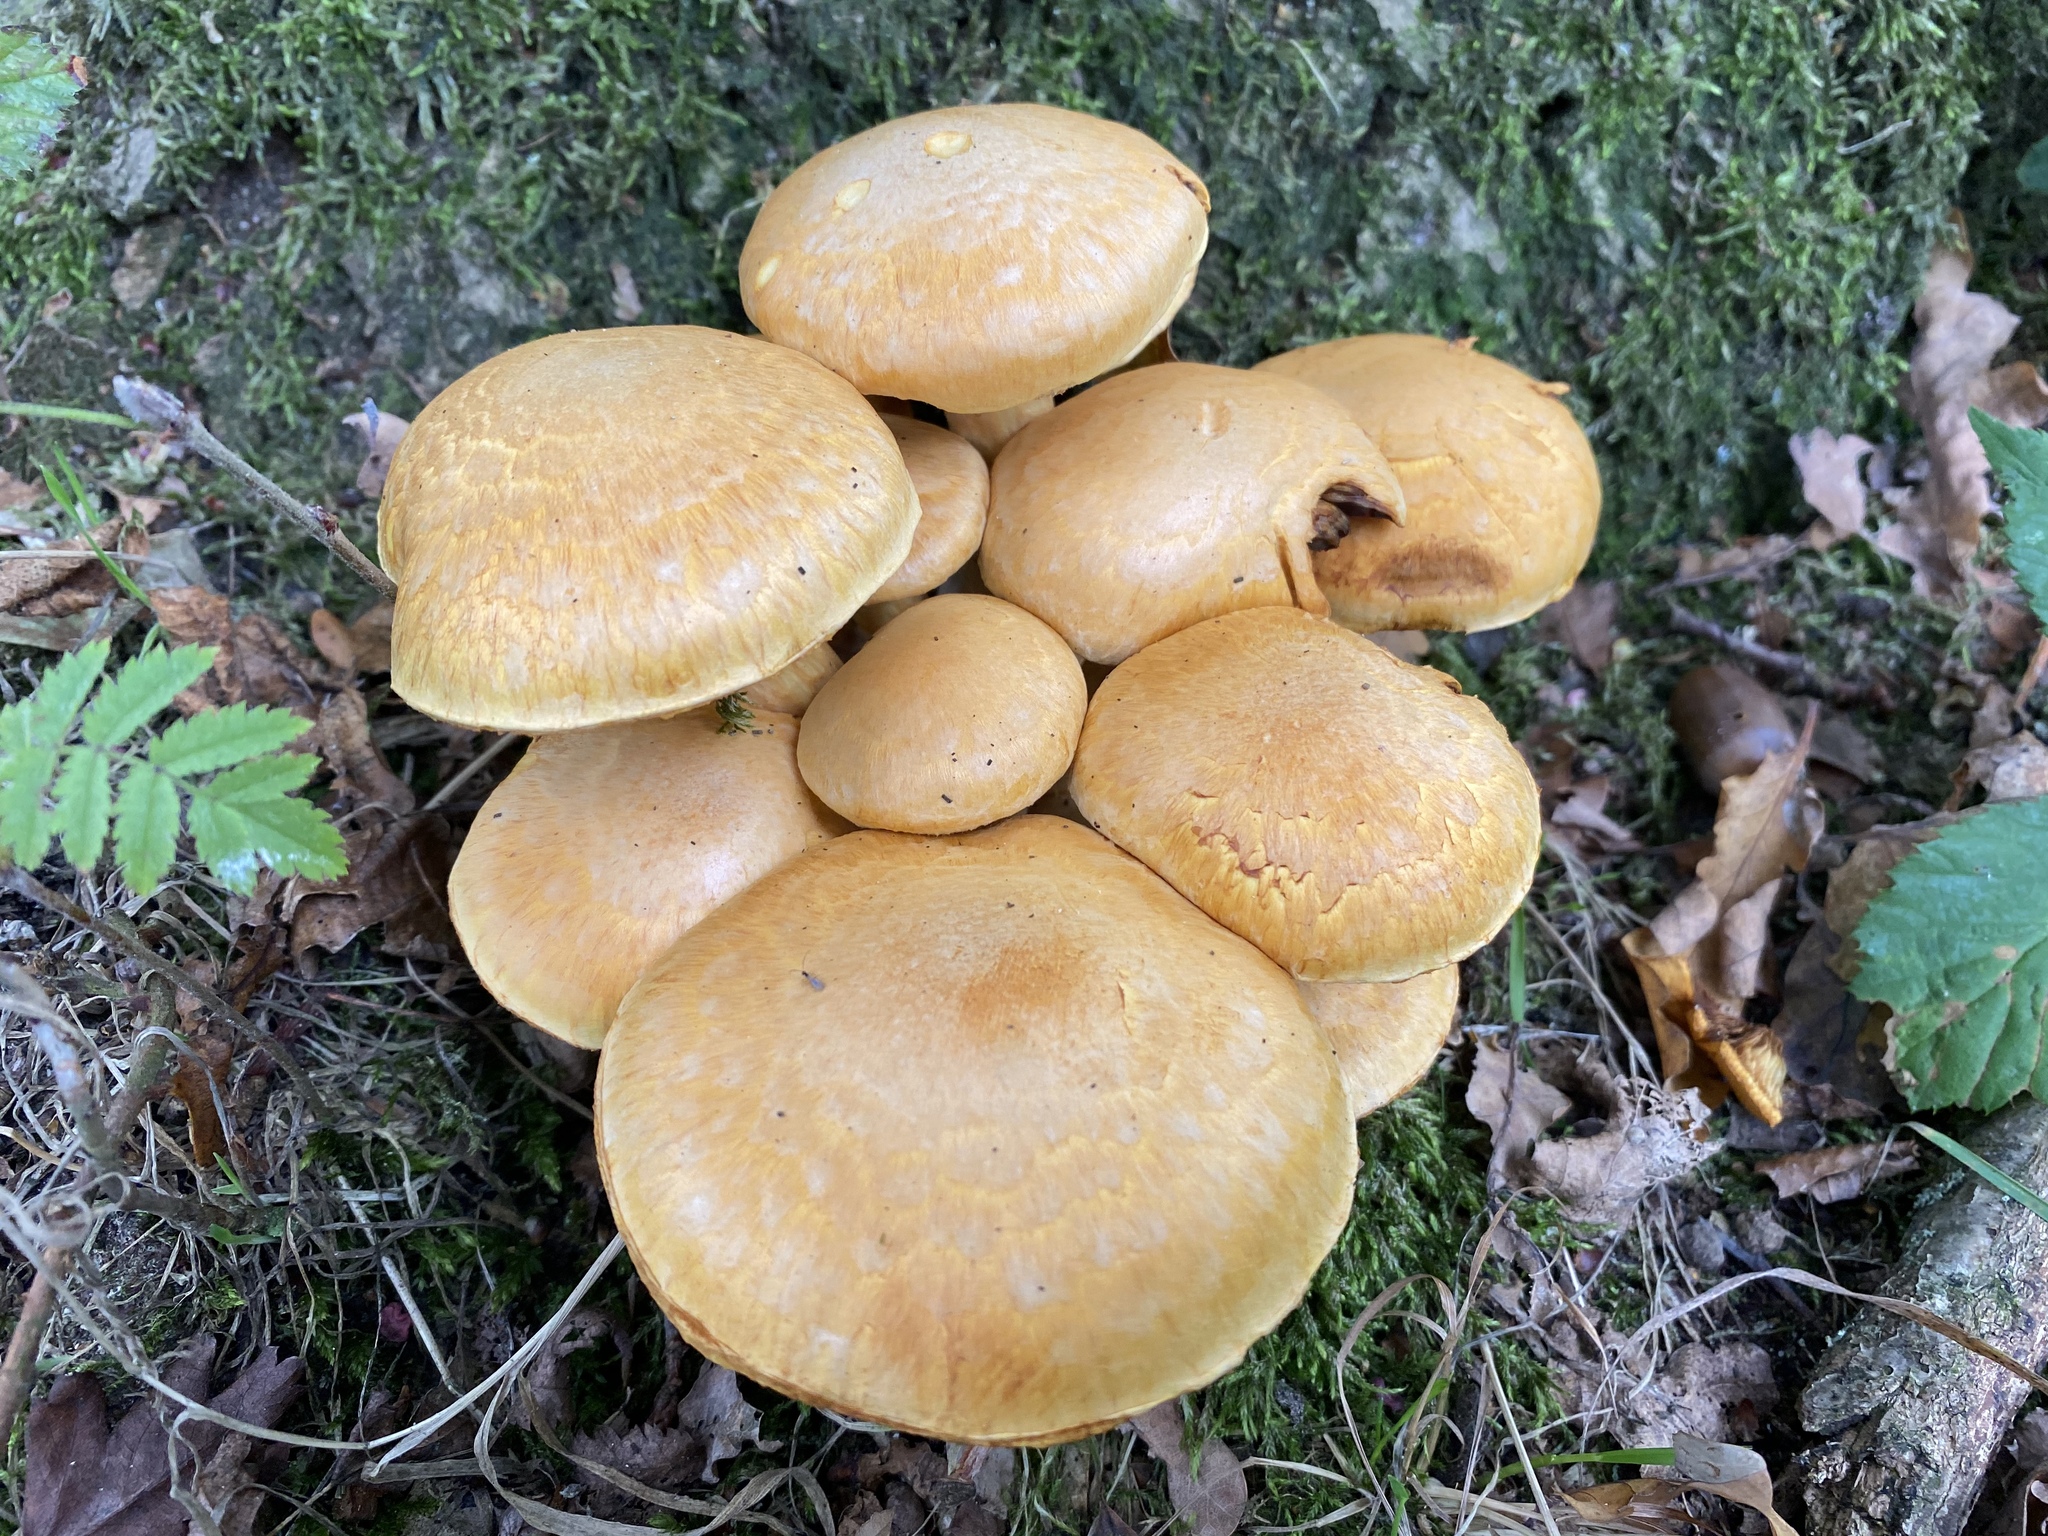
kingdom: Fungi
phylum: Basidiomycota
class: Agaricomycetes
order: Agaricales
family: Hymenogastraceae
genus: Gymnopilus
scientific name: Gymnopilus junonius
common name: Spectacular rustgill
